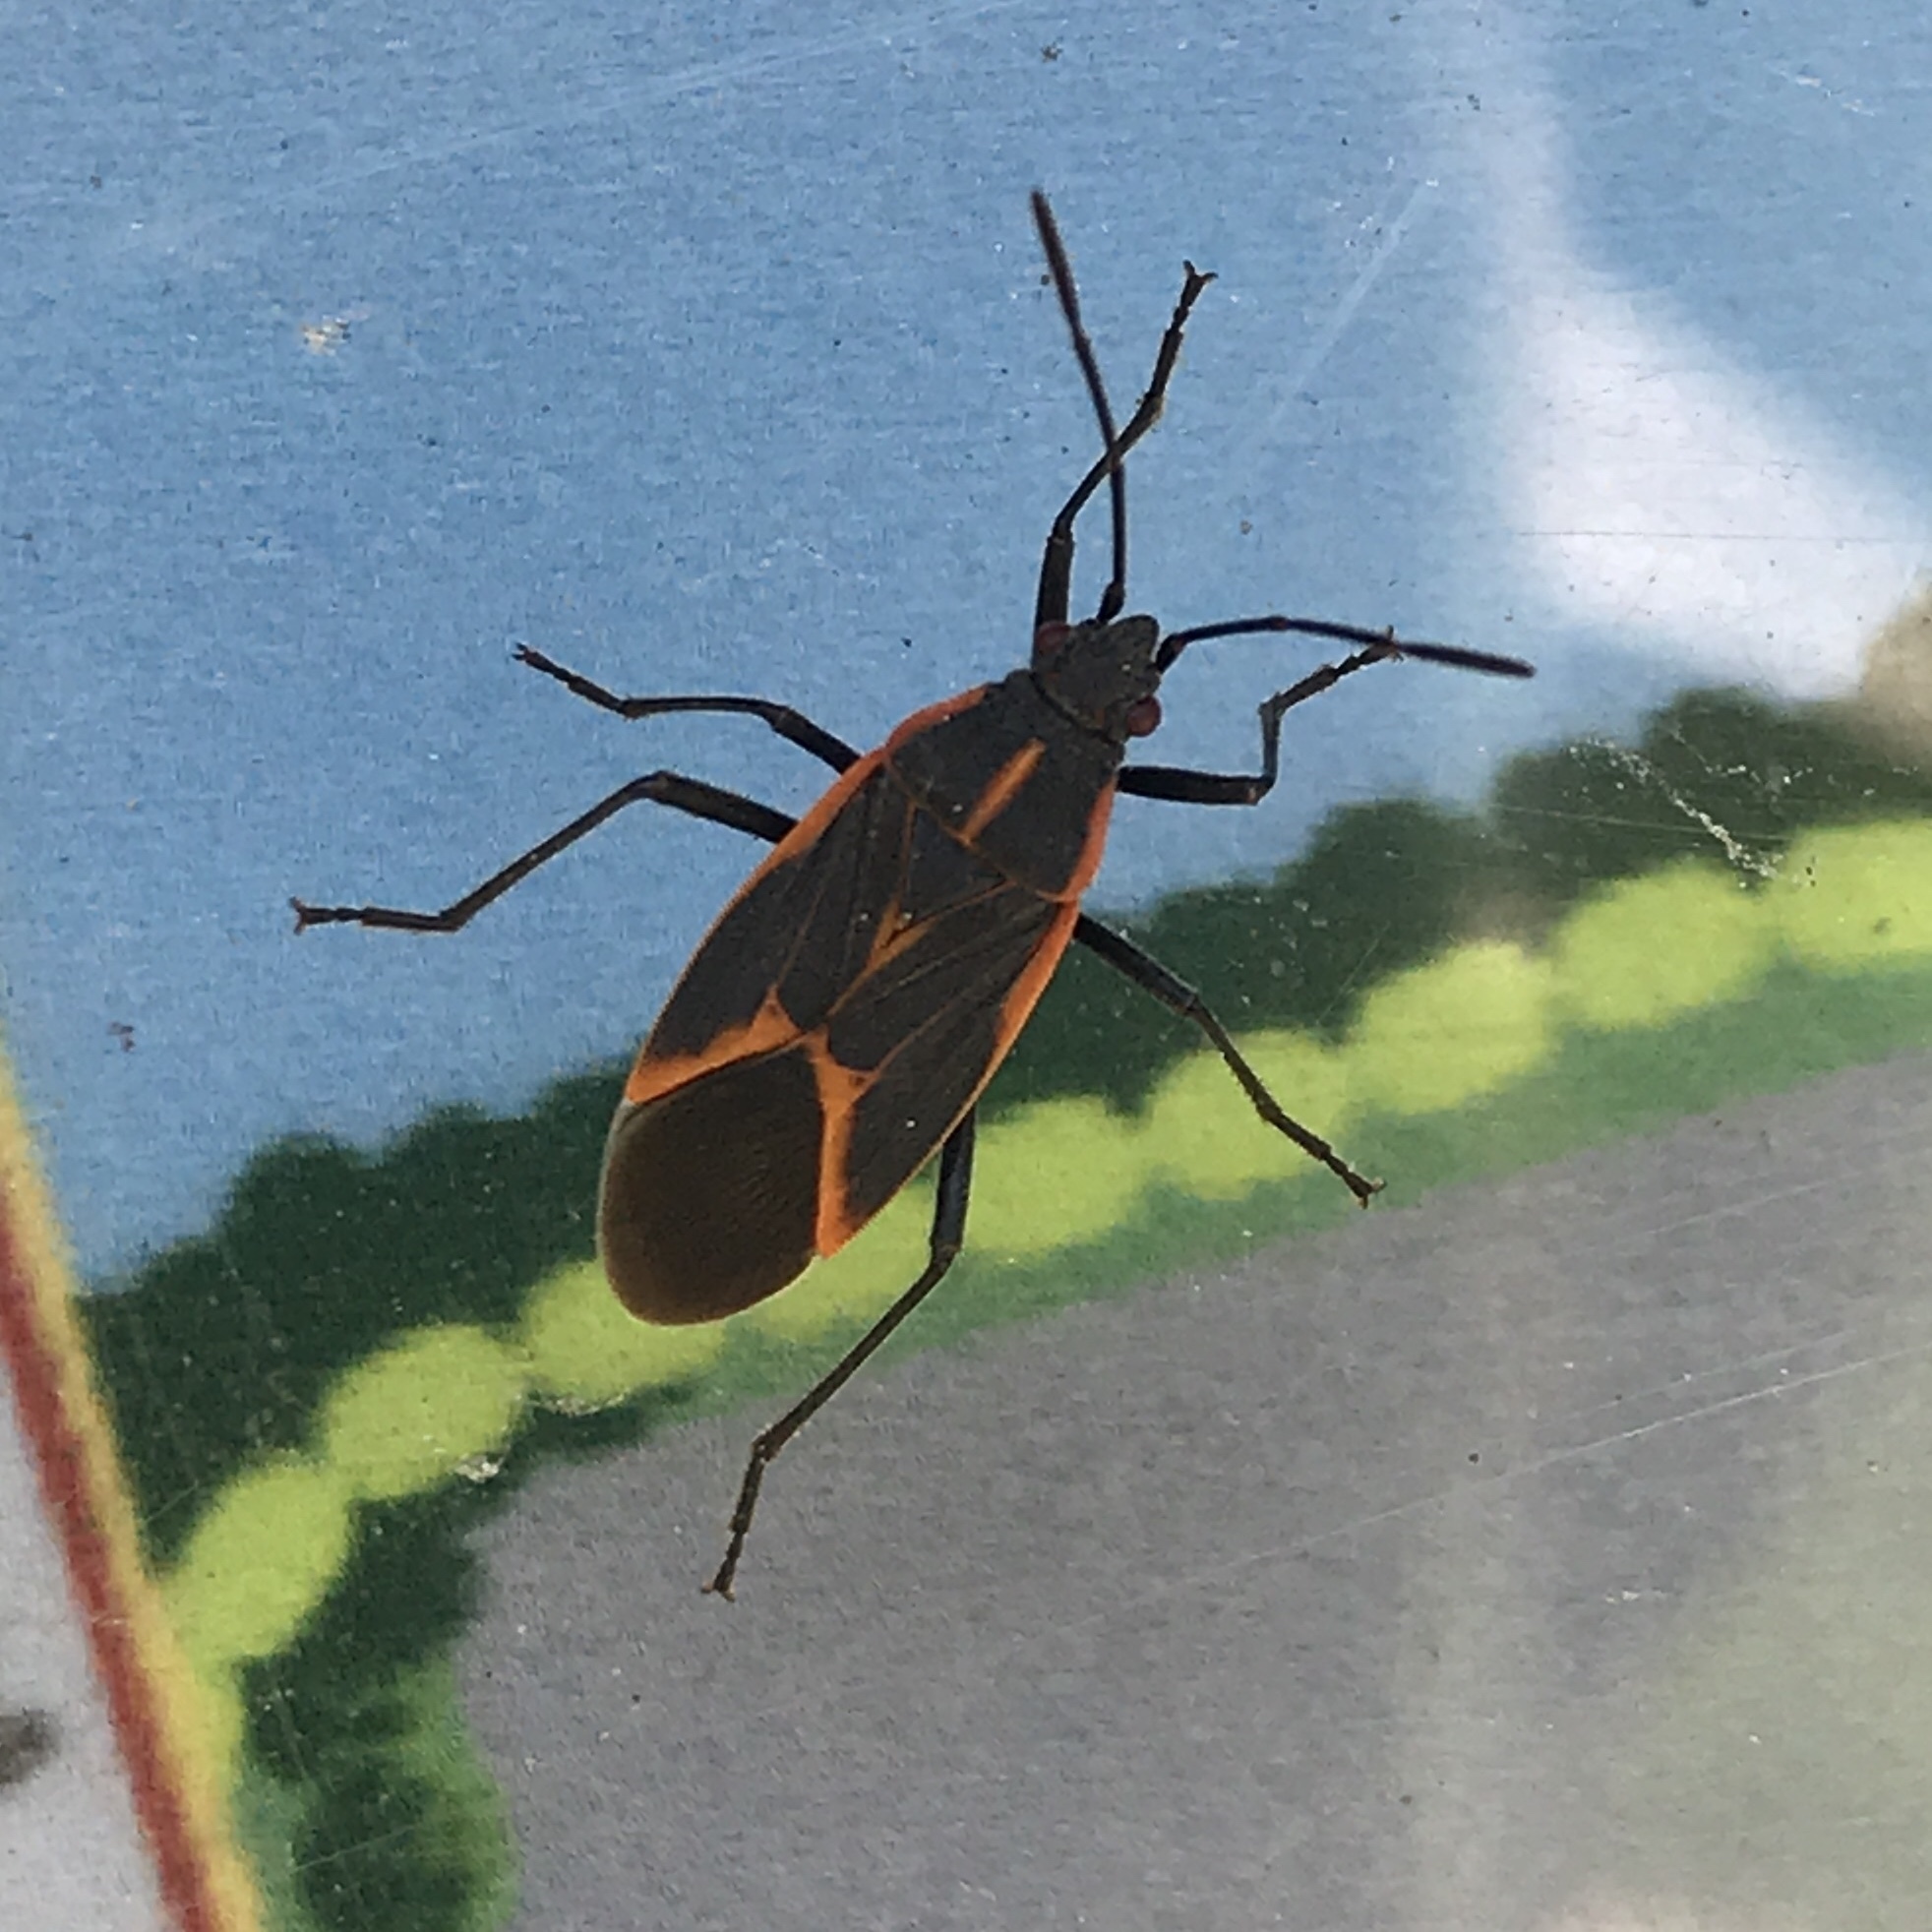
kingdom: Animalia
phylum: Arthropoda
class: Insecta
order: Hemiptera
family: Rhopalidae
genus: Boisea
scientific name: Boisea trivittata
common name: Boxelder bug
